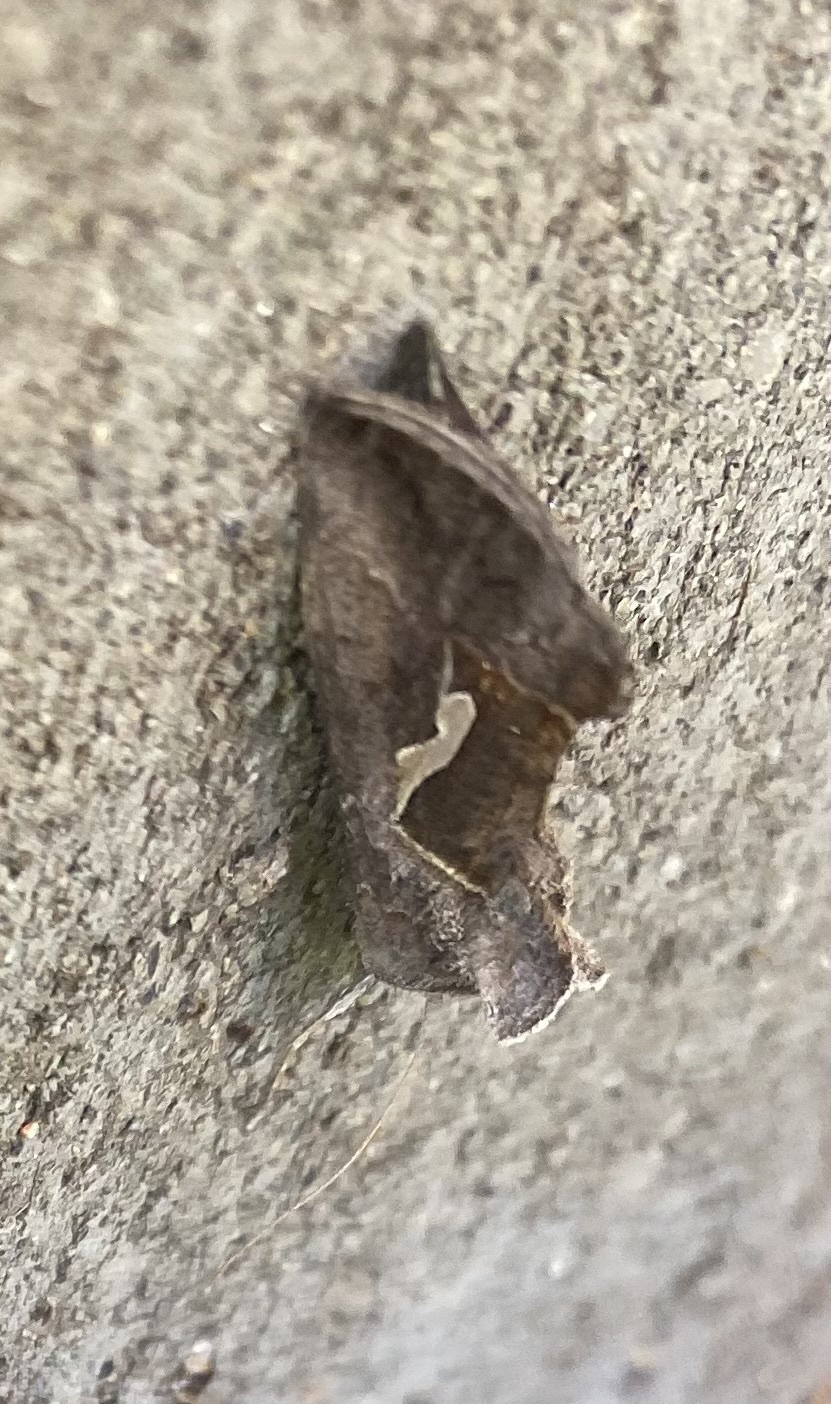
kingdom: Animalia
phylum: Arthropoda
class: Insecta
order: Lepidoptera
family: Noctuidae
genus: Macdunnoughia
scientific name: Macdunnoughia confusa
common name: Dewick's plusia
